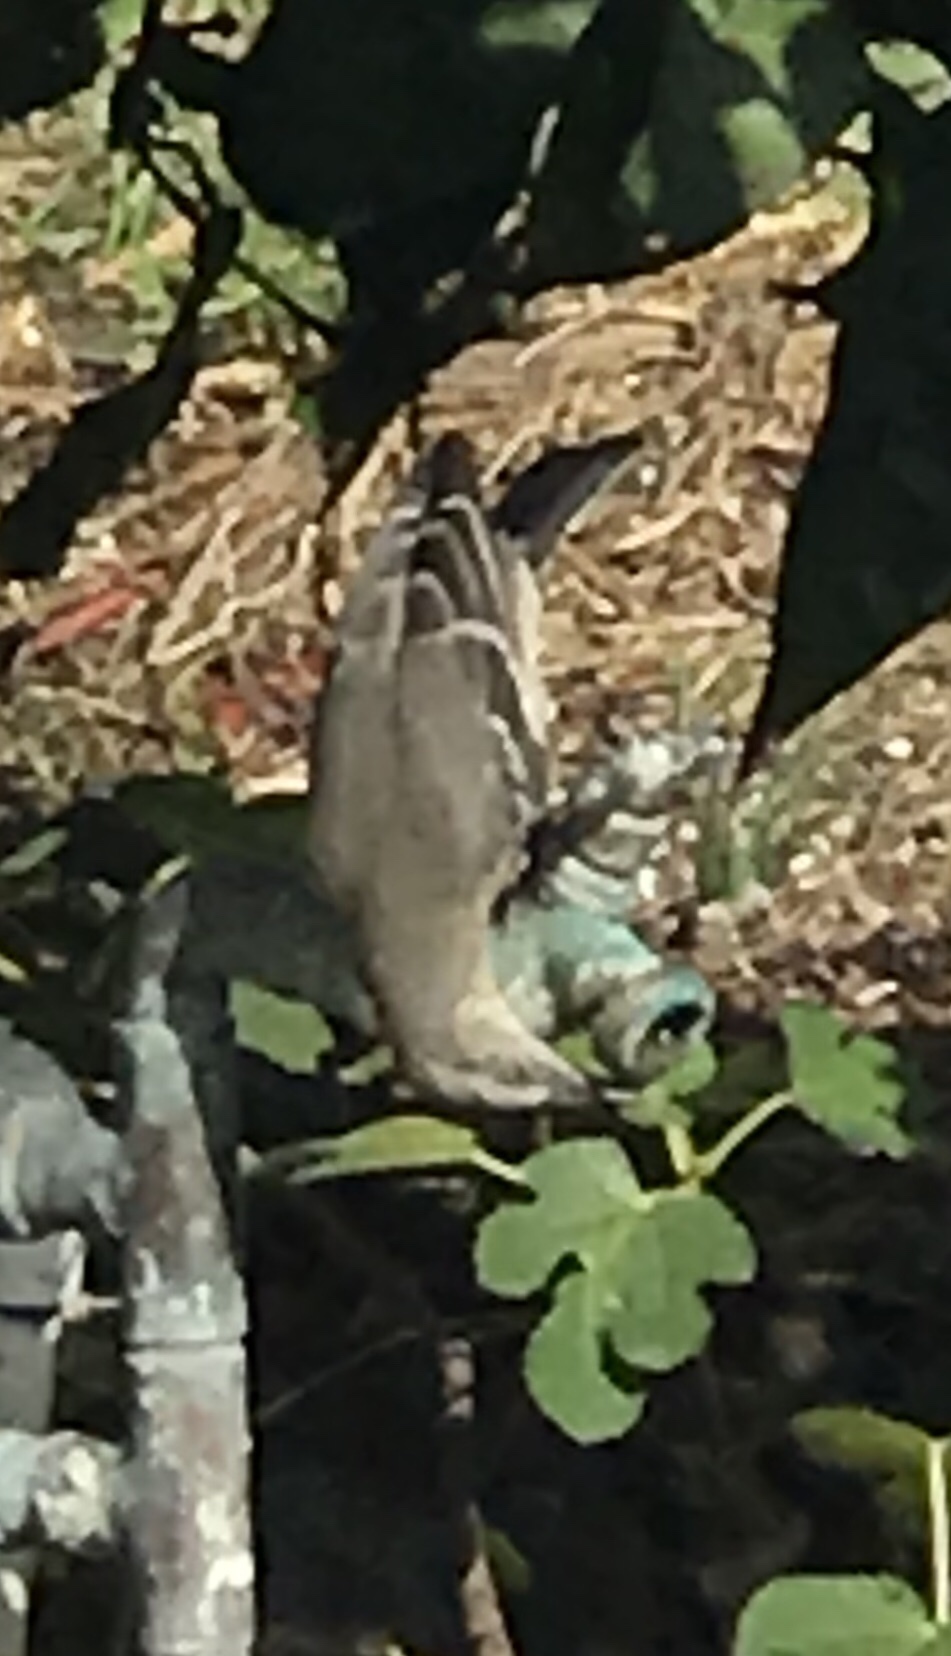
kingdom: Animalia
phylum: Chordata
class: Aves
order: Passeriformes
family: Mimidae
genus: Mimus
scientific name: Mimus polyglottos
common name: Northern mockingbird
